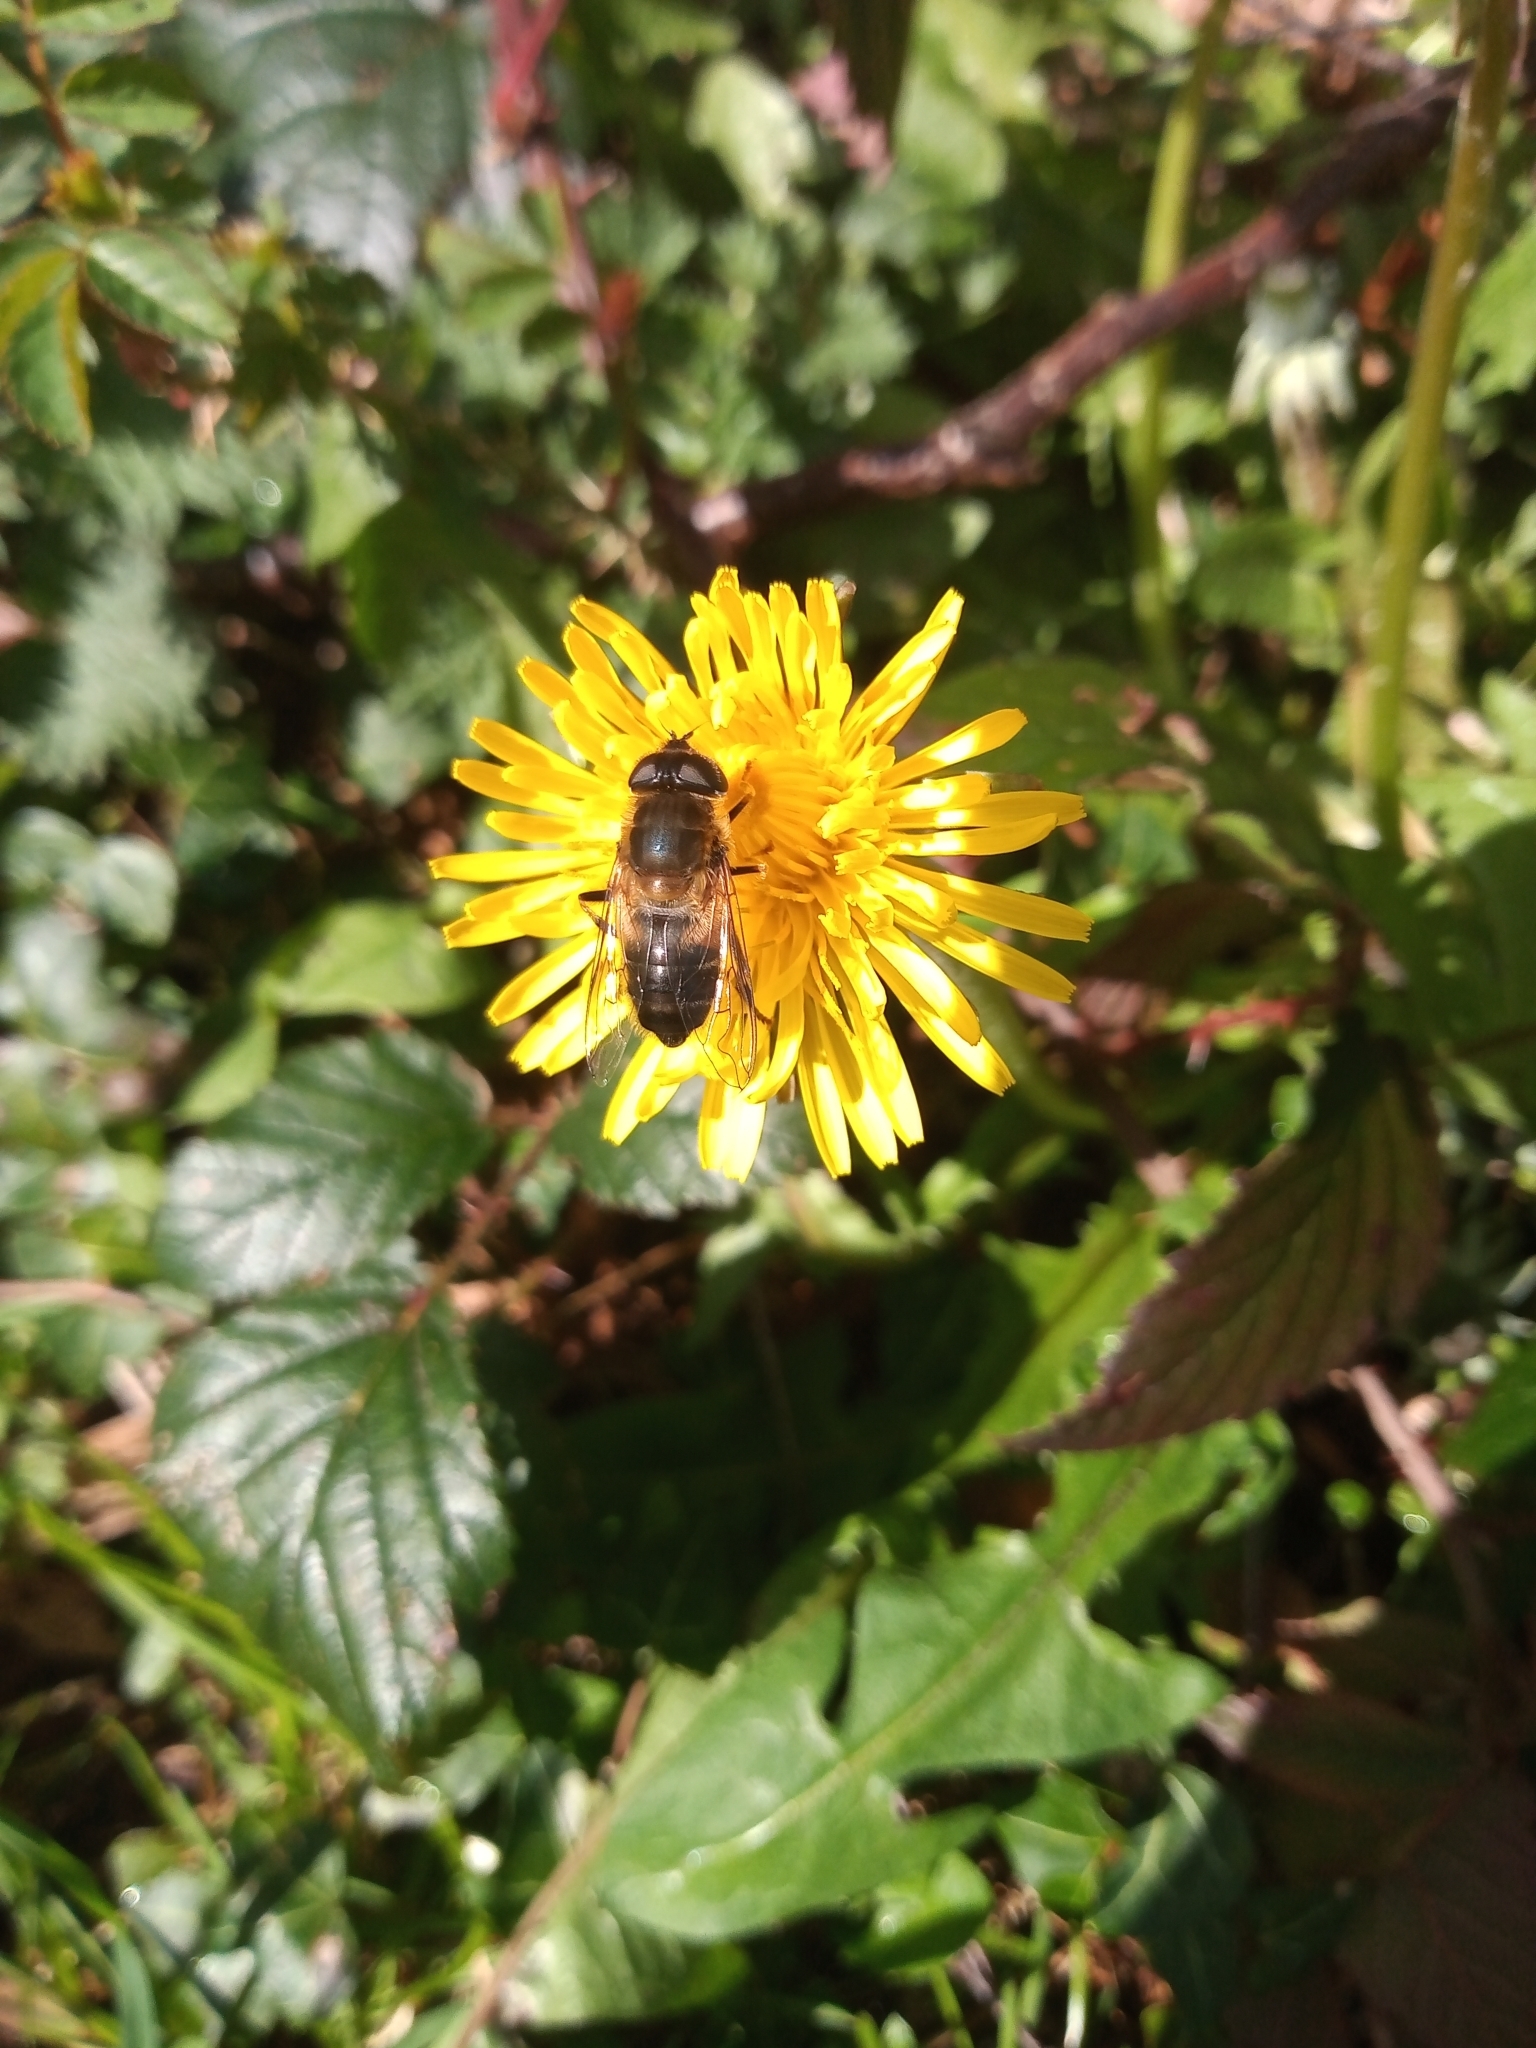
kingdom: Animalia
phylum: Arthropoda
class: Insecta
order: Diptera
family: Syrphidae
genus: Eristalis
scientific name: Eristalis pertinax
